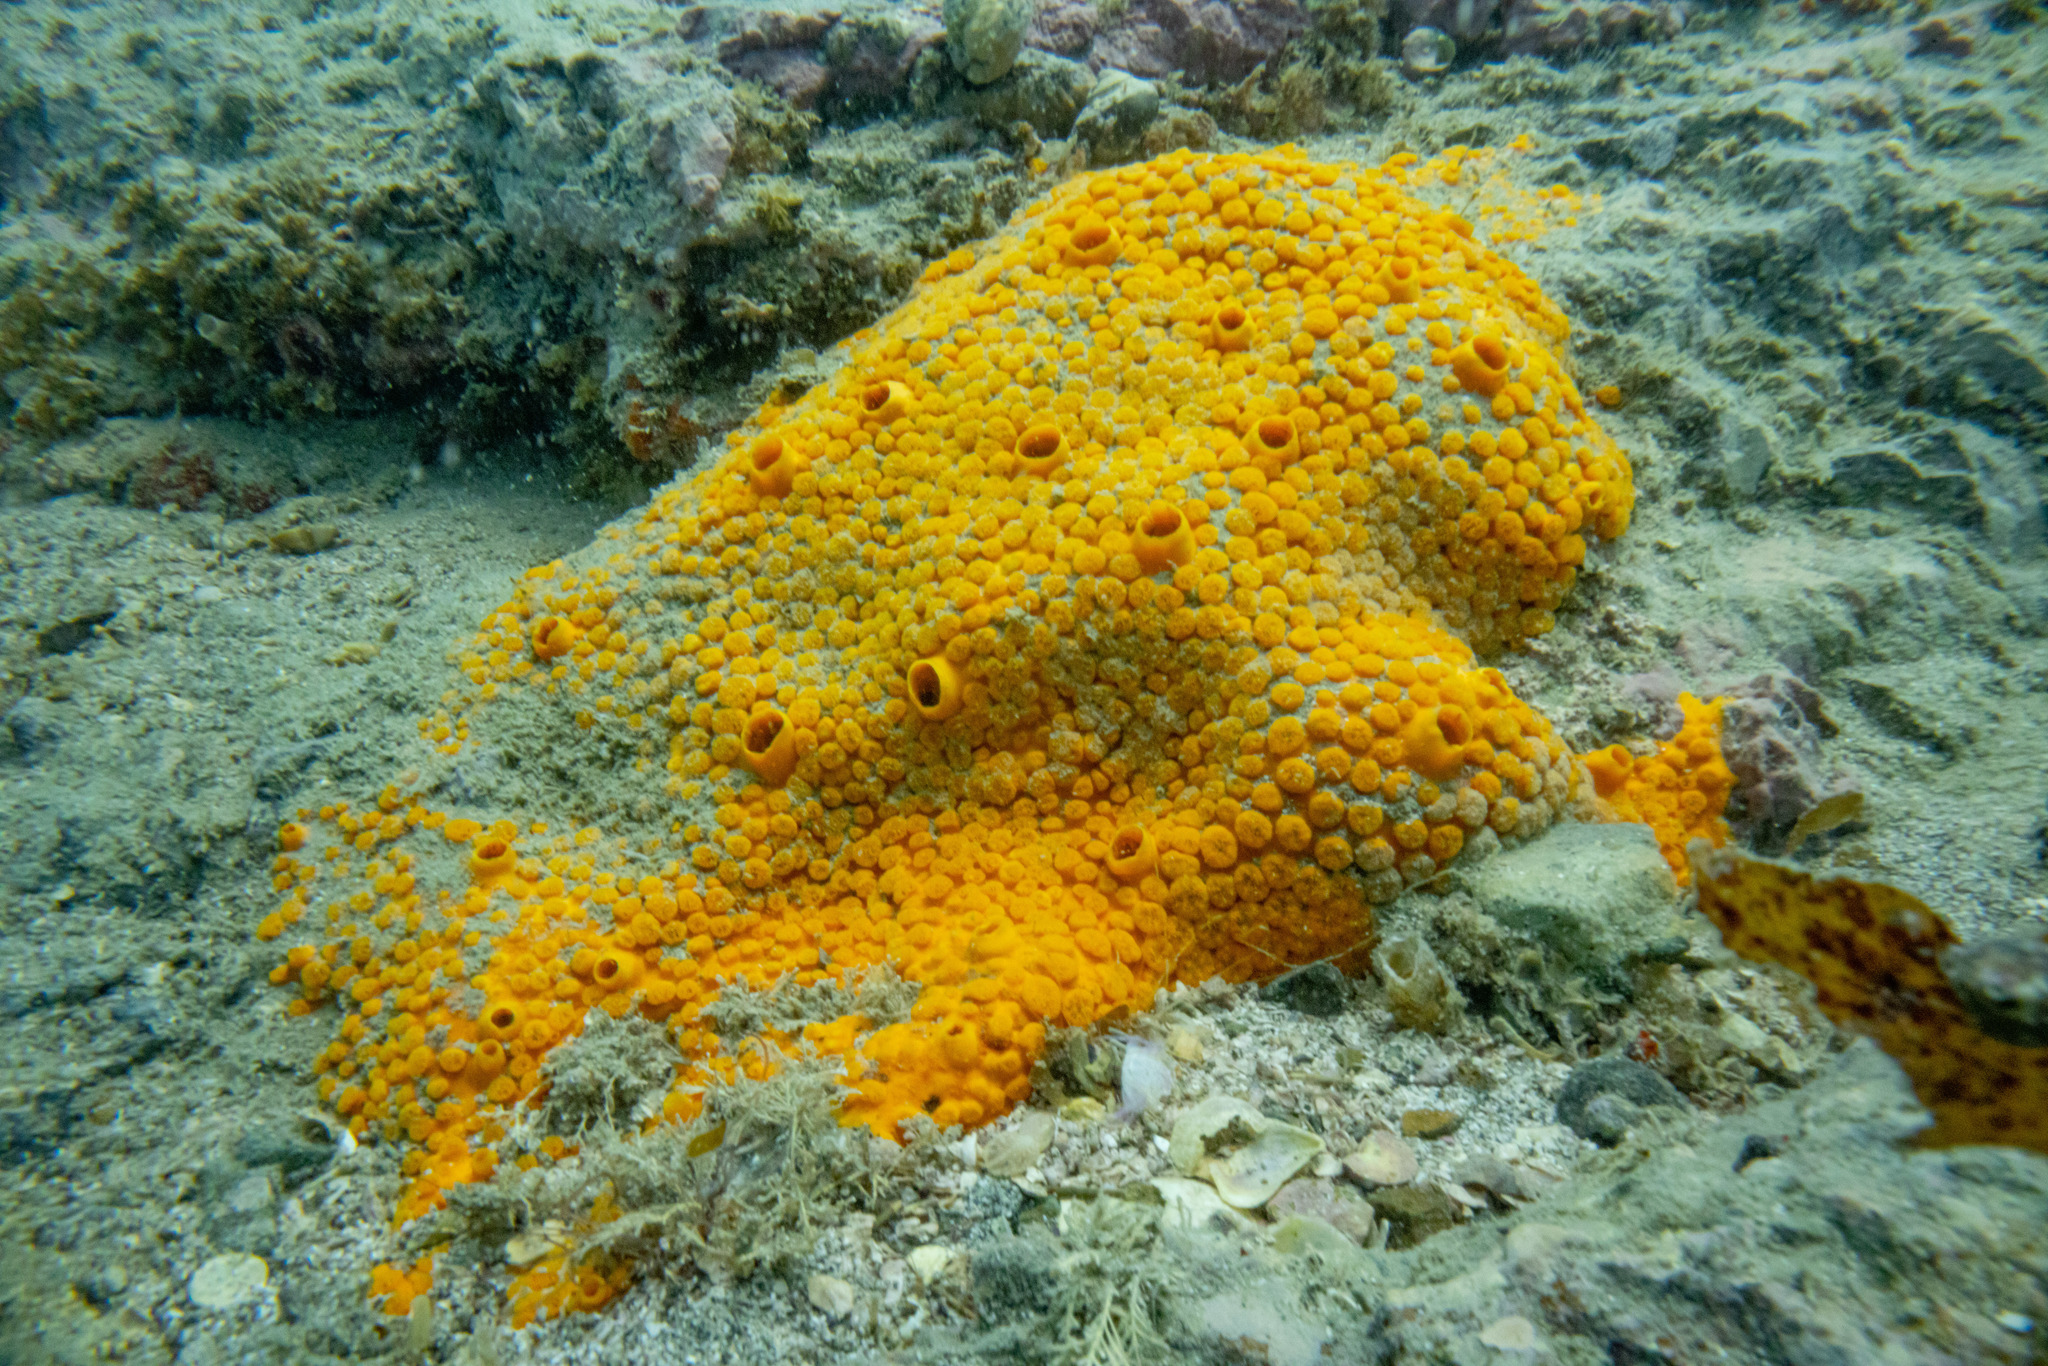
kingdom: Animalia
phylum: Porifera
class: Demospongiae
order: Clionaida
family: Clionaidae
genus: Cliona
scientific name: Cliona celata
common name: Boring sponge
